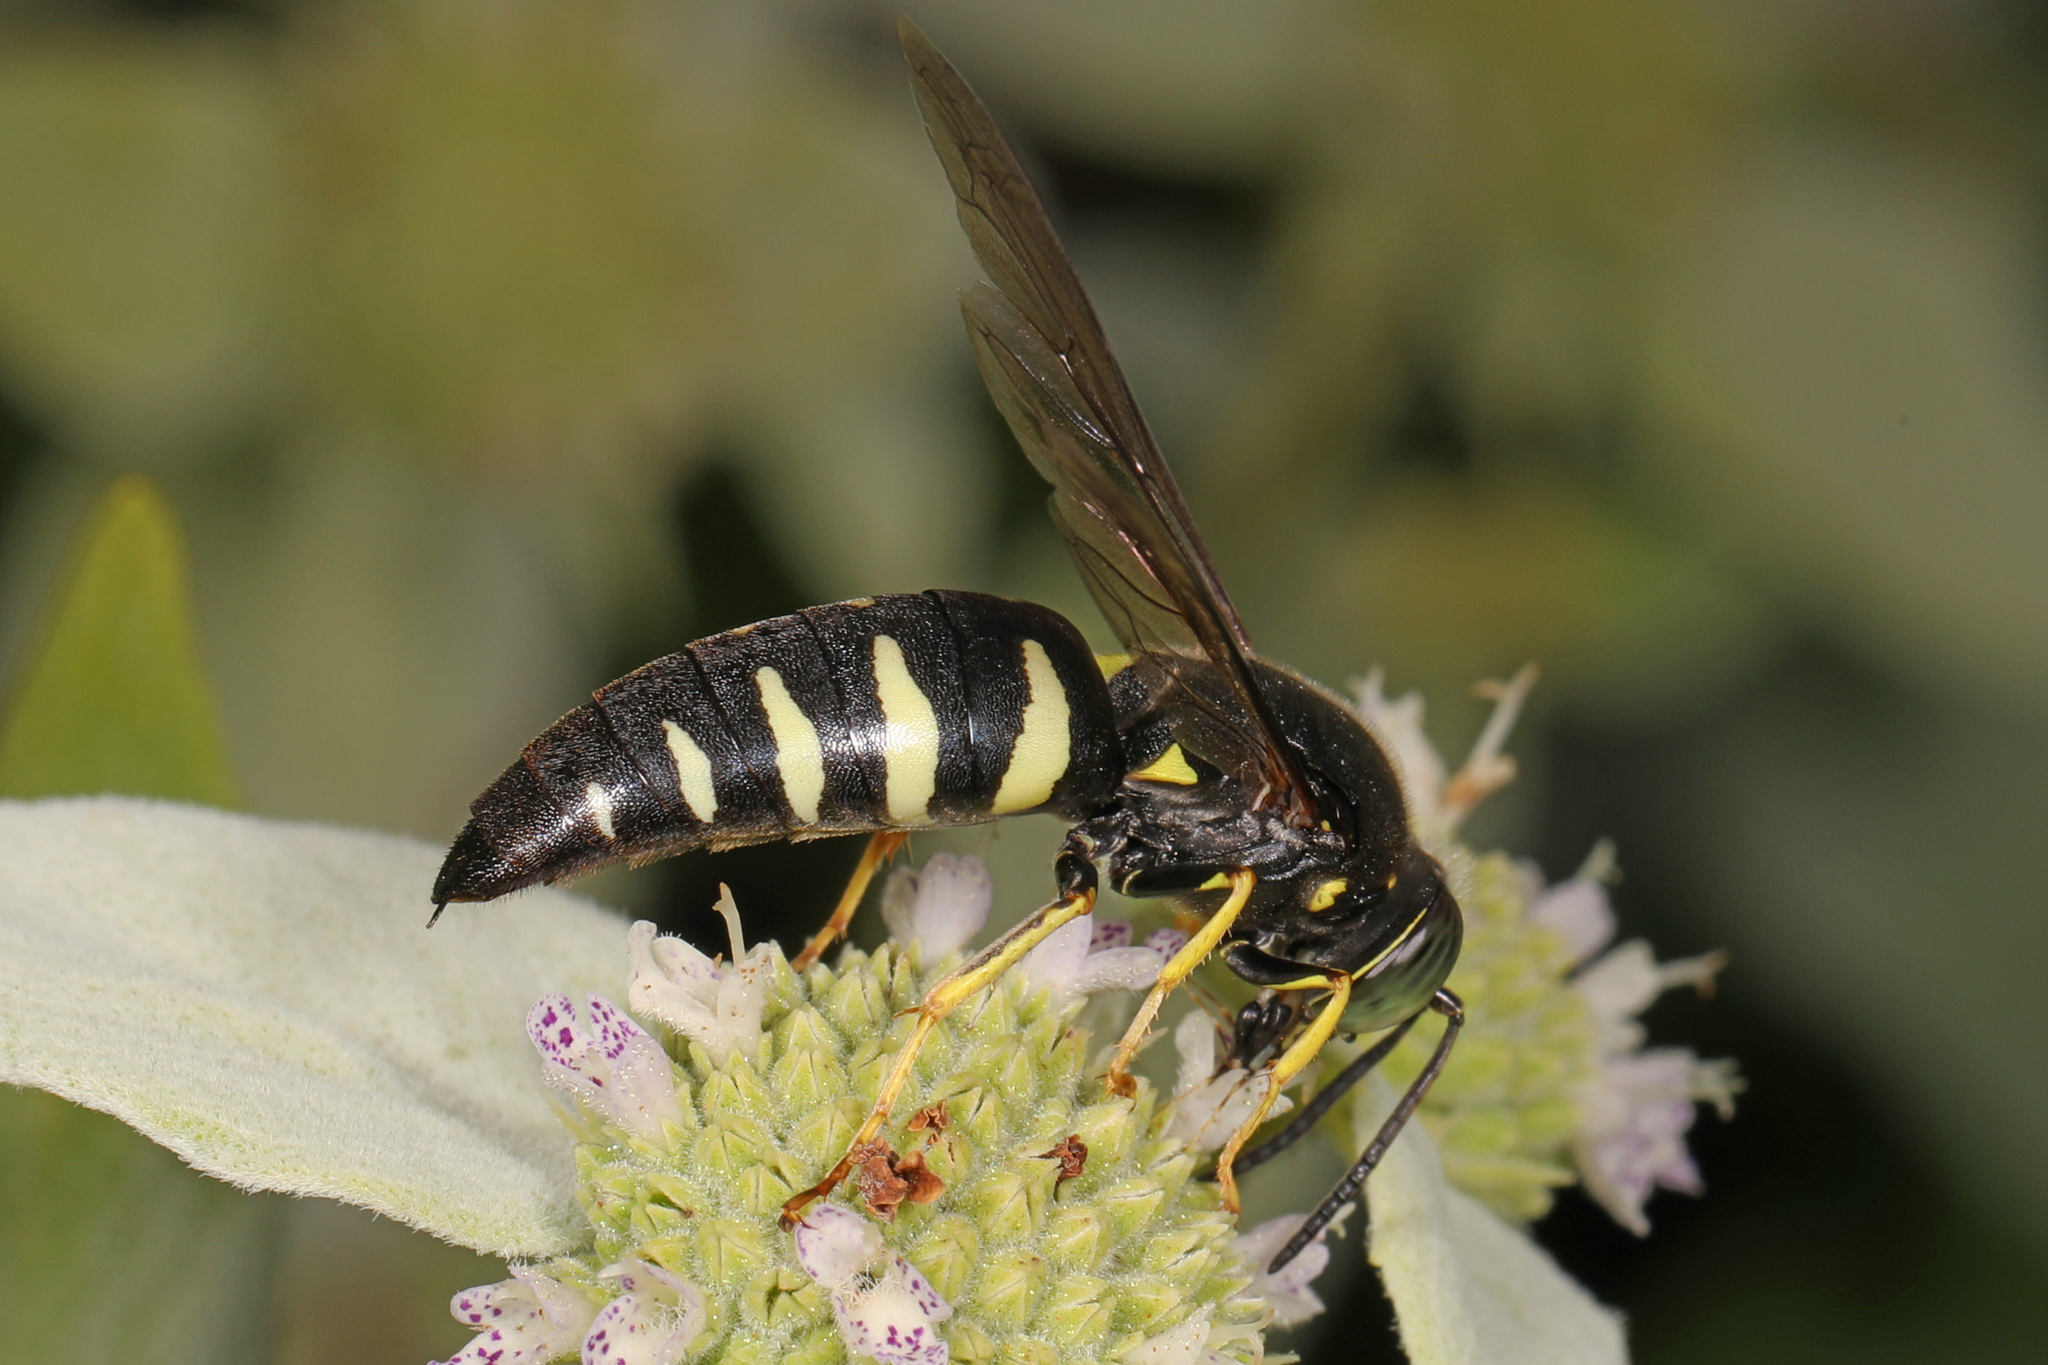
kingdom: Animalia
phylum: Arthropoda
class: Insecta
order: Hymenoptera
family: Crabronidae
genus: Bicyrtes
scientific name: Bicyrtes quadrifasciatus
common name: Four-banded stink bug hunter wasp
